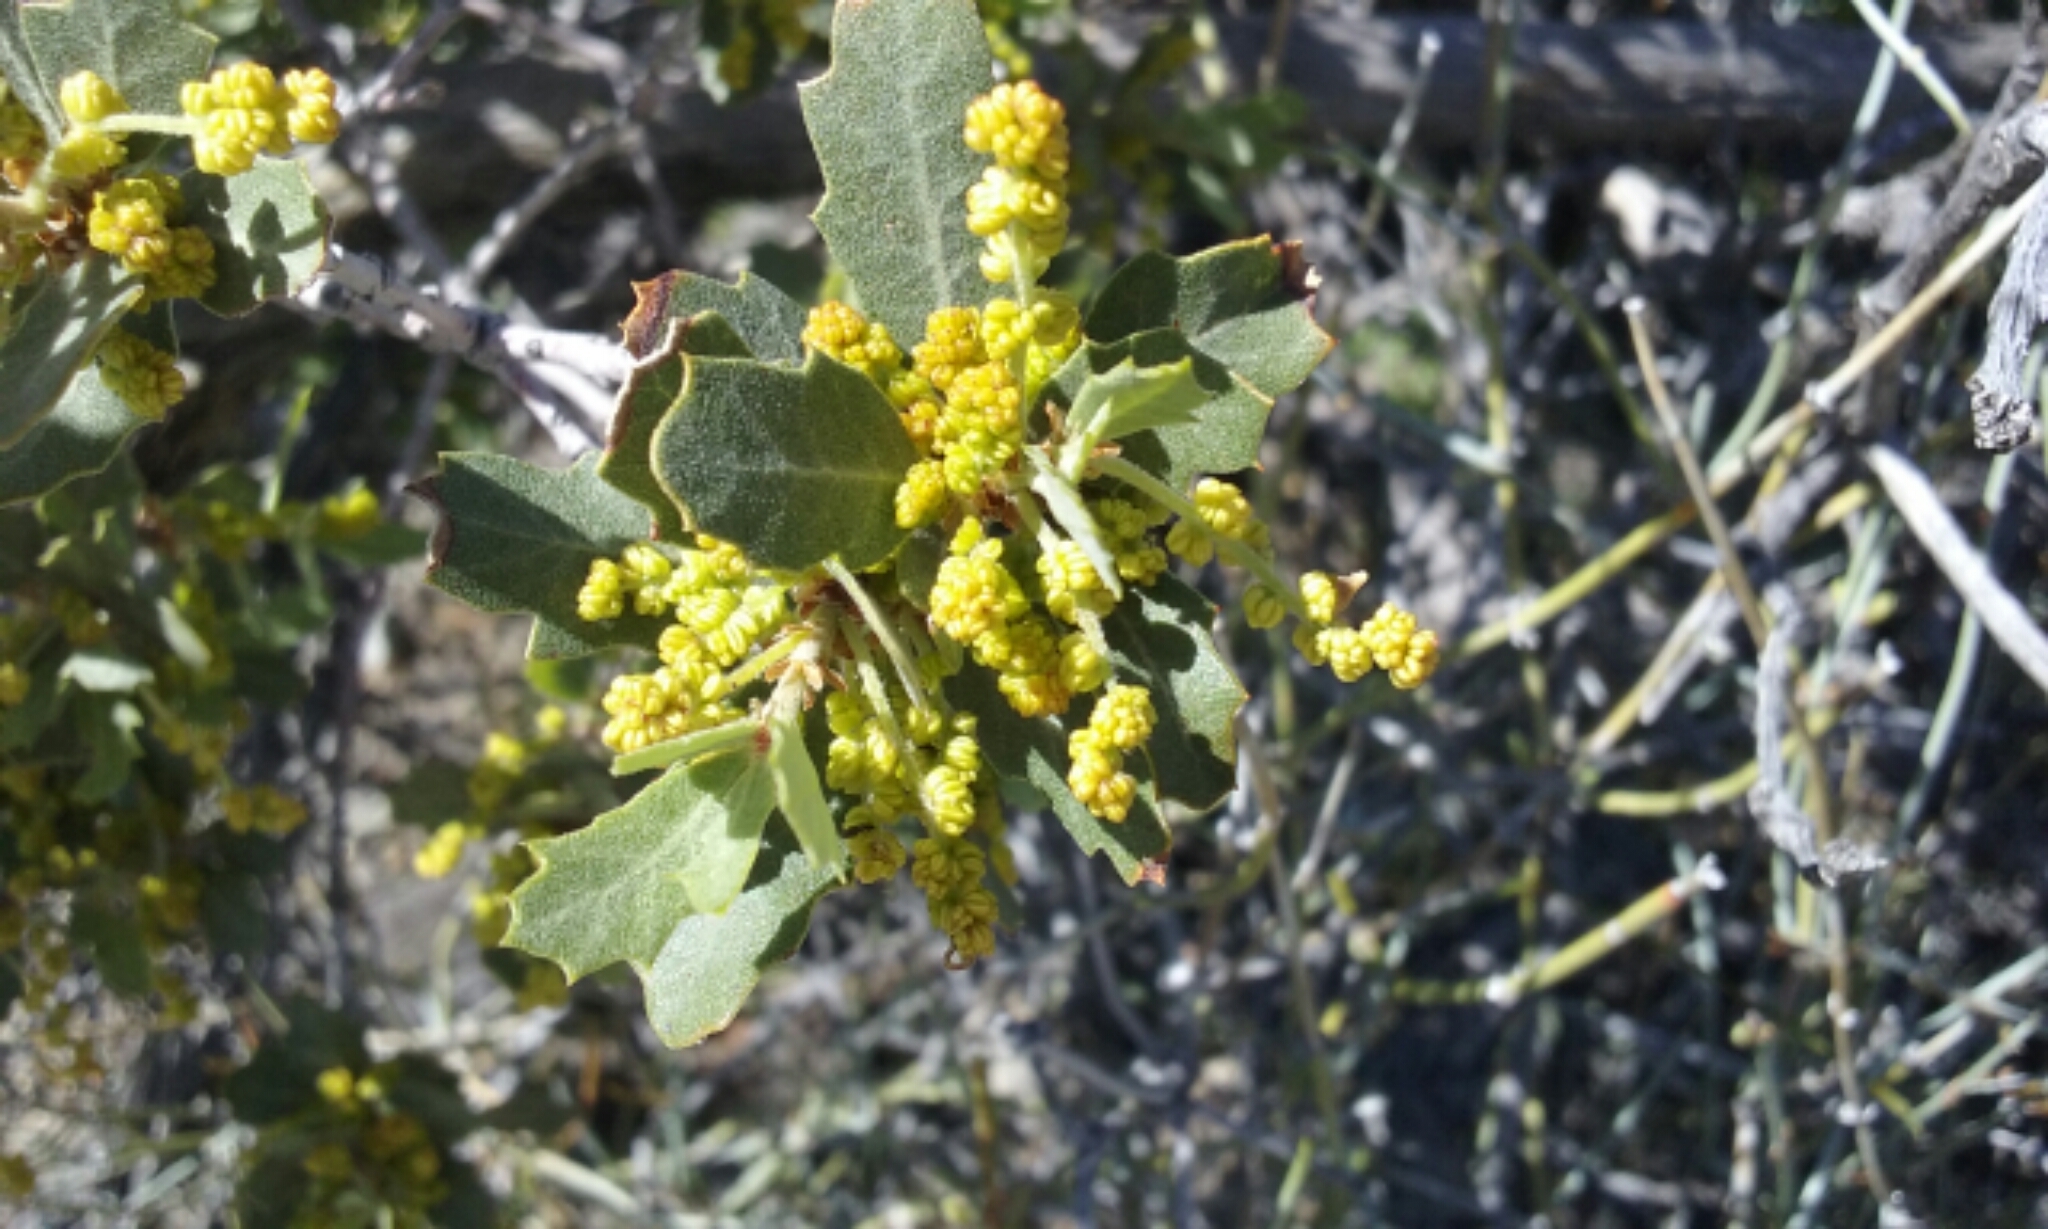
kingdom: Plantae
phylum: Tracheophyta
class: Magnoliopsida
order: Fagales
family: Fagaceae
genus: Quercus
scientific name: Quercus cornelius-mulleri
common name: Muller oak
